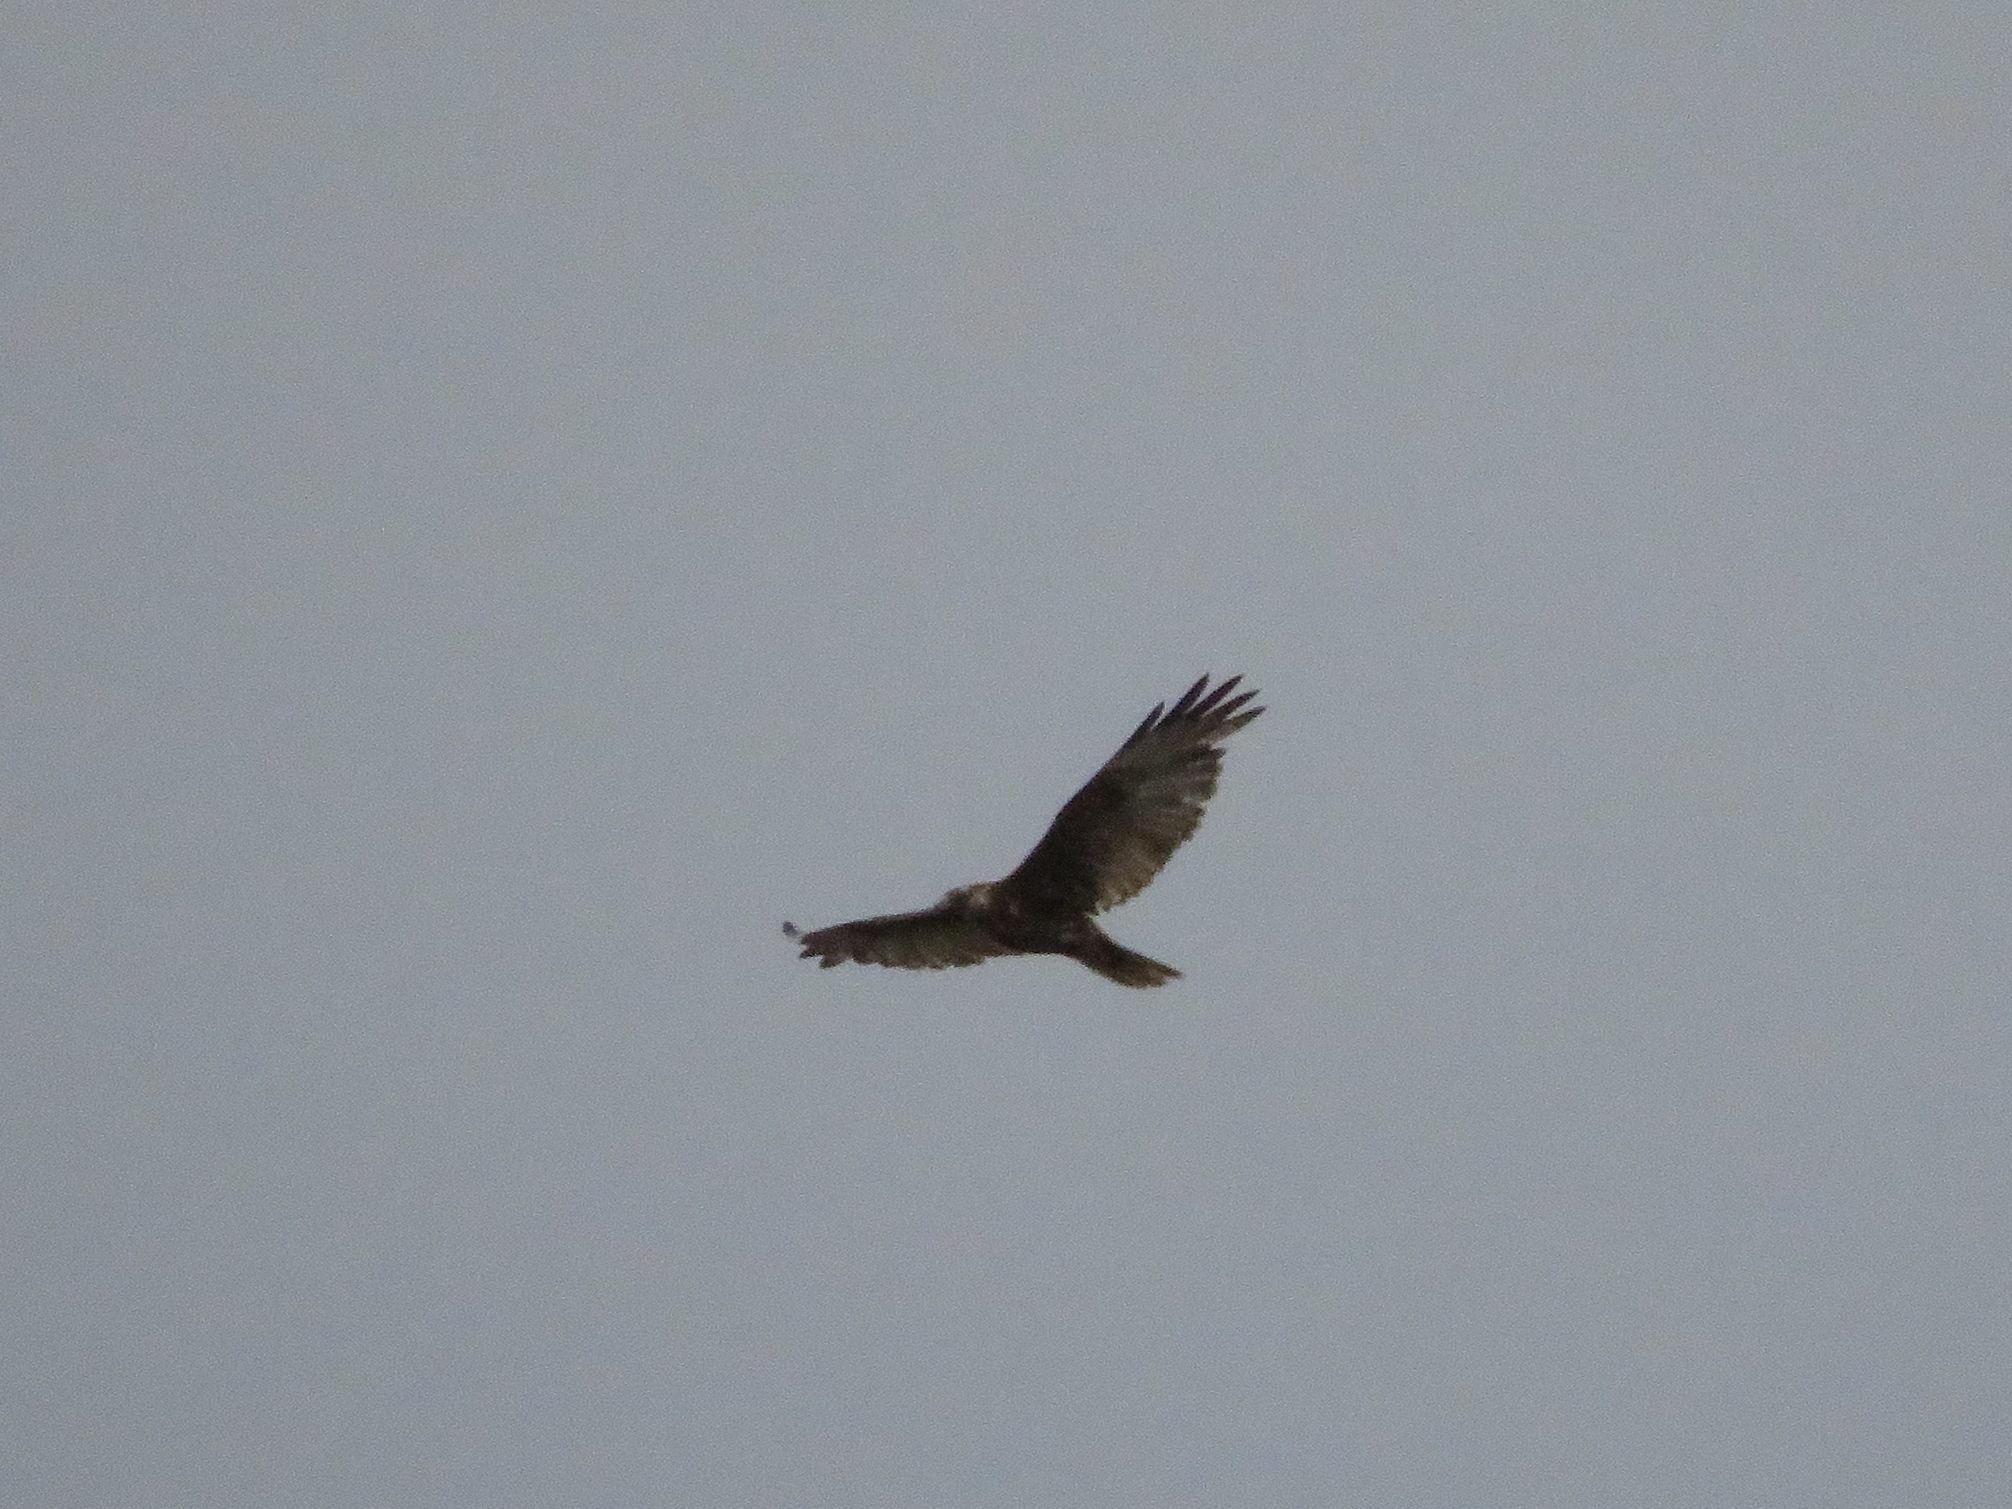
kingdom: Animalia
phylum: Chordata
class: Aves
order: Accipitriformes
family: Accipitridae
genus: Buteo
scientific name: Buteo polyosoma
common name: Variable hawk
